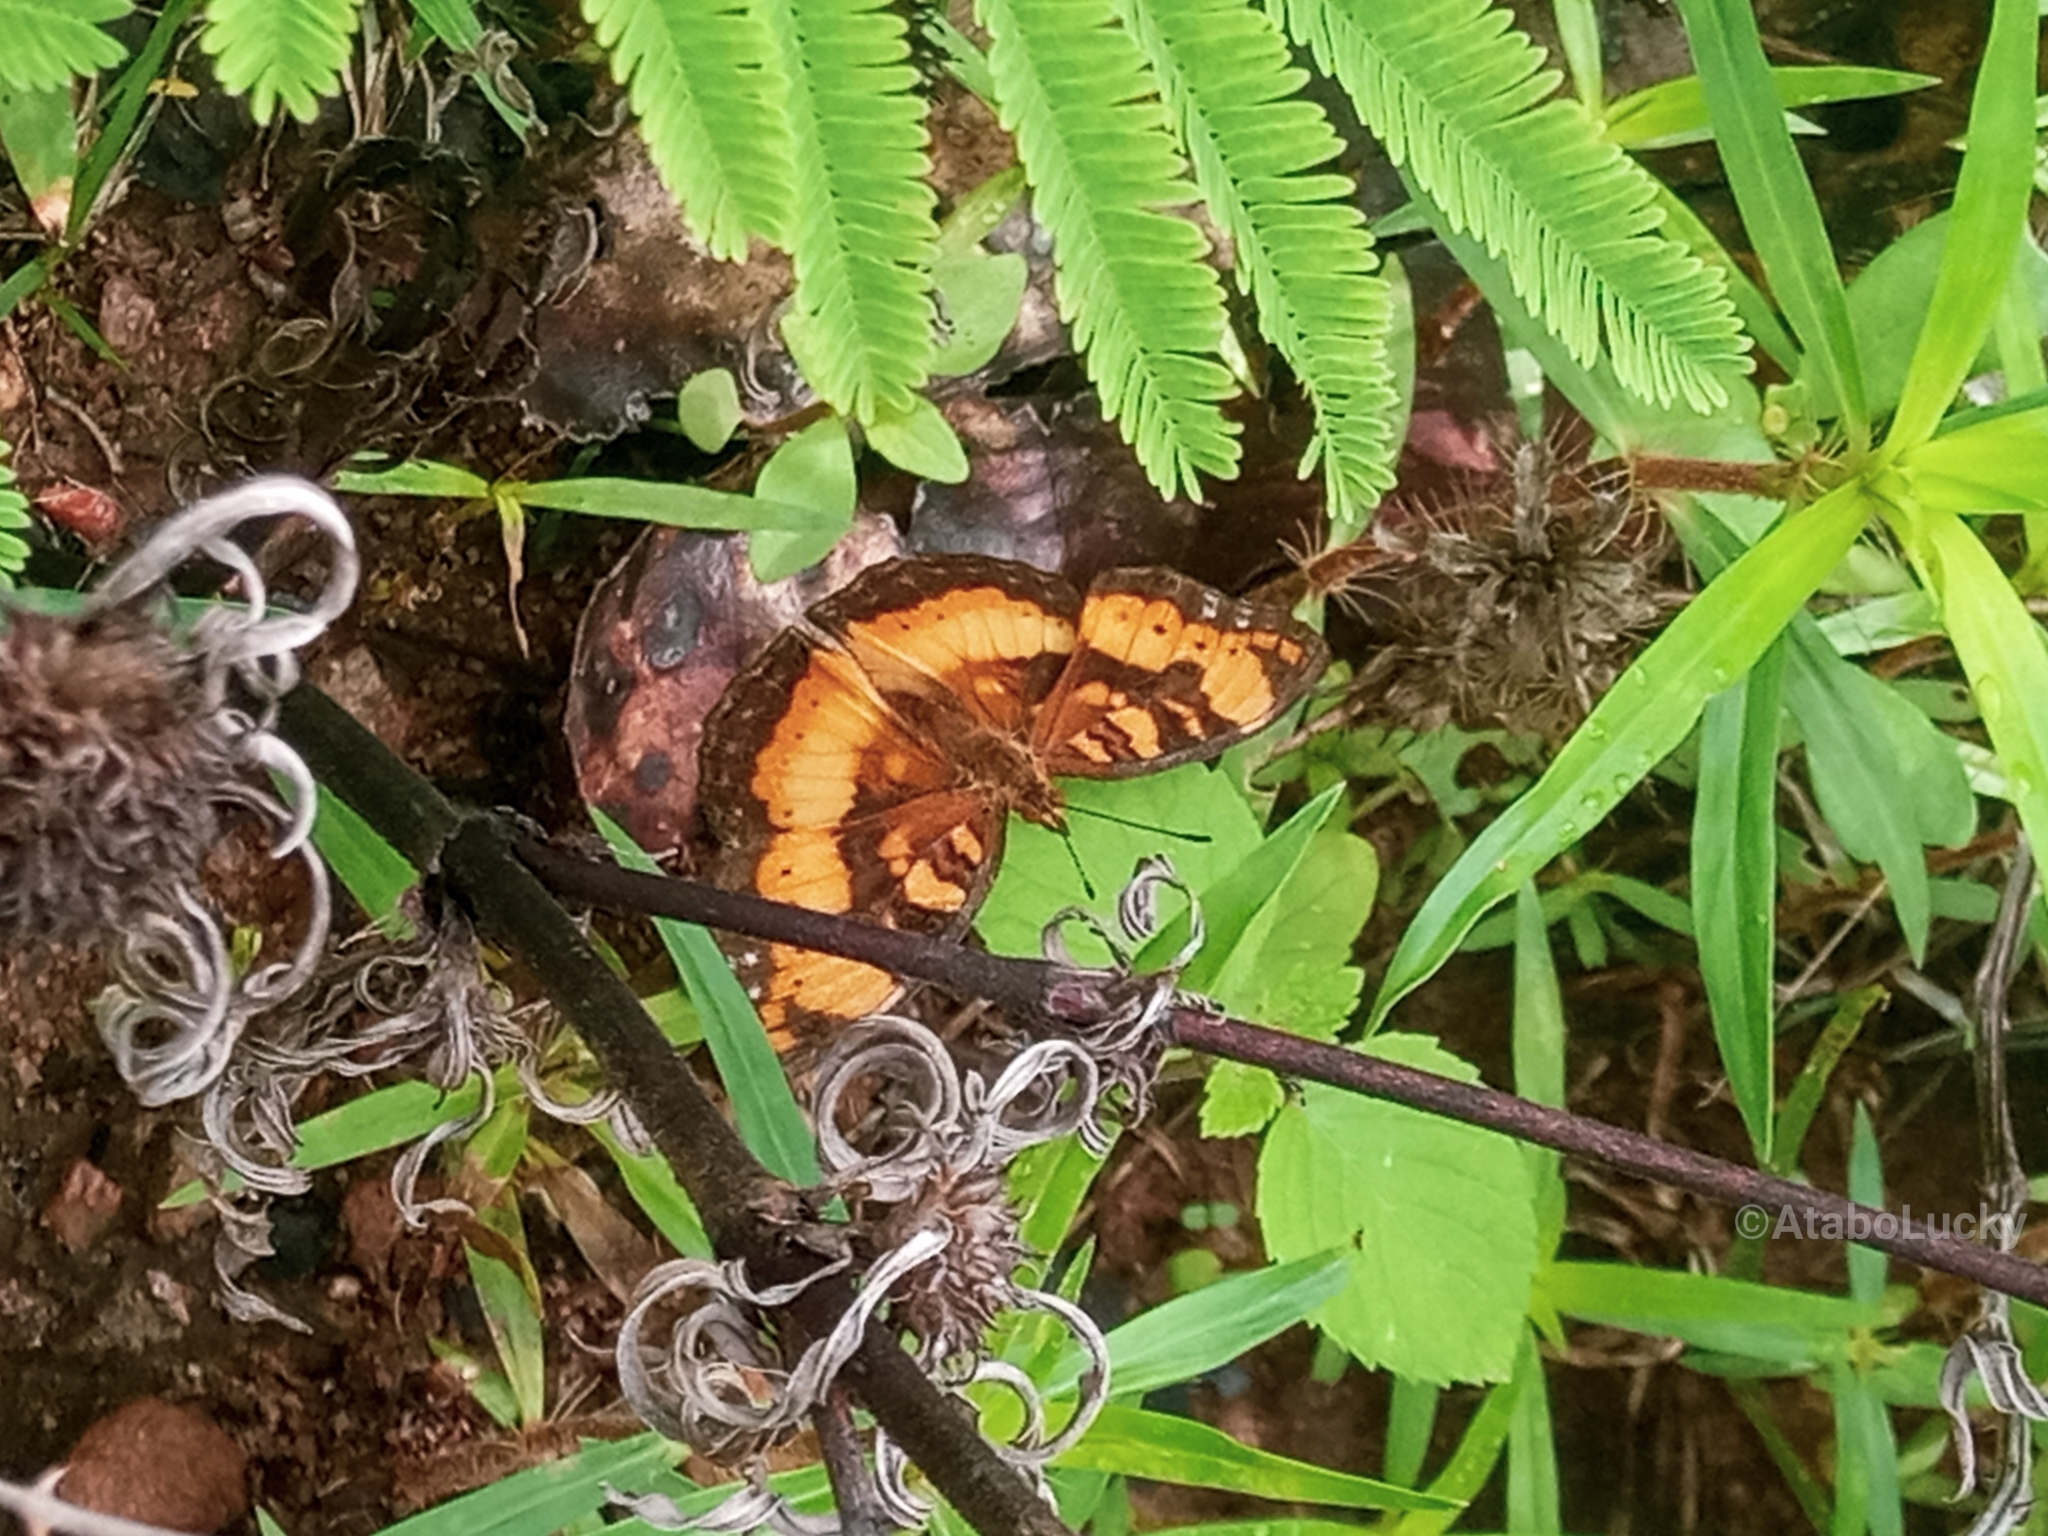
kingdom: Animalia
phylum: Arthropoda
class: Insecta
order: Lepidoptera
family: Nymphalidae
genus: Junonia
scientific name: Junonia antilope
